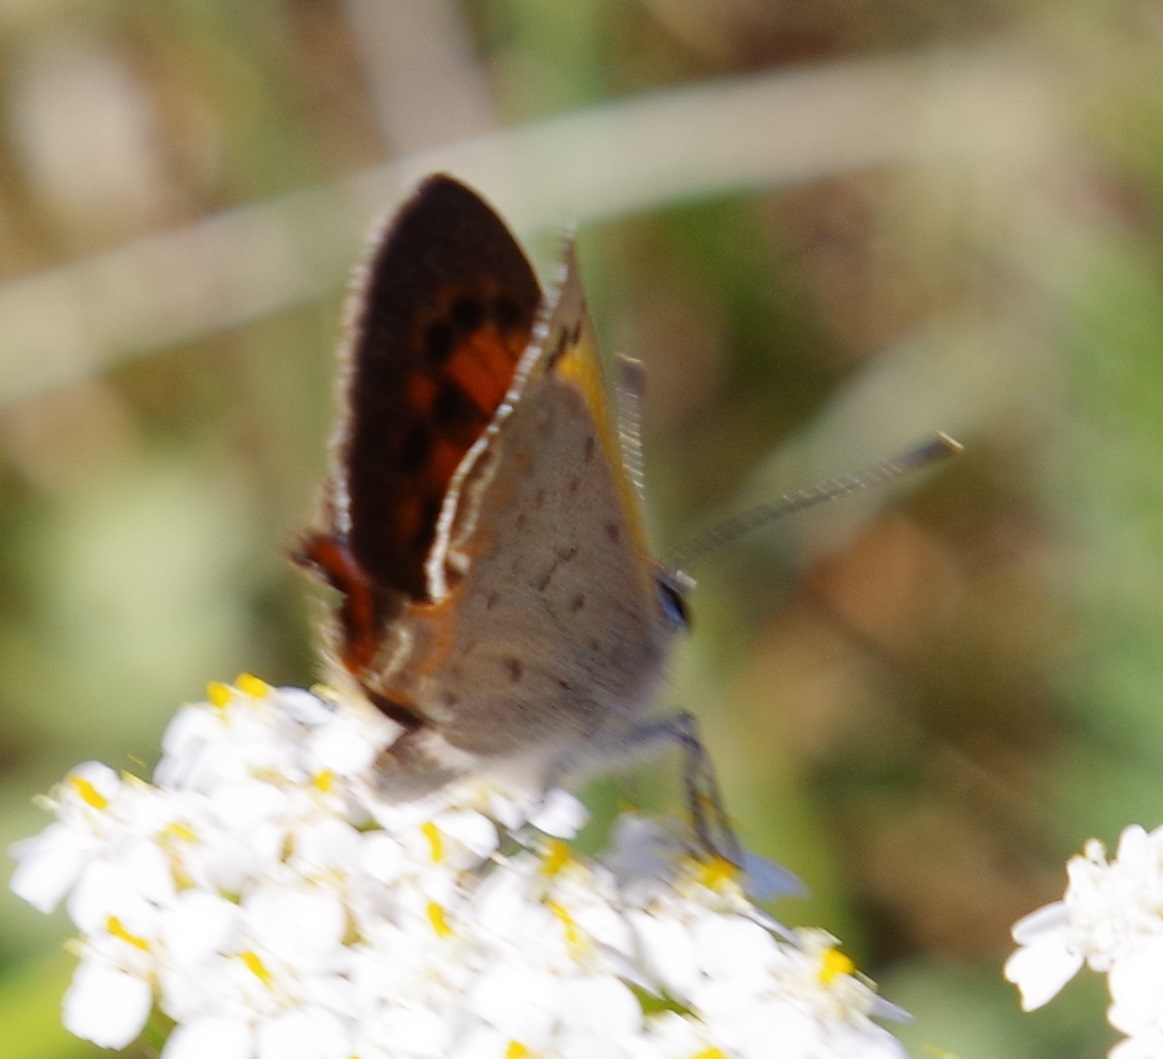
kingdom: Animalia
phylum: Arthropoda
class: Insecta
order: Lepidoptera
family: Lycaenidae
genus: Lycaena
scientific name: Lycaena phlaeas
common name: Small copper
